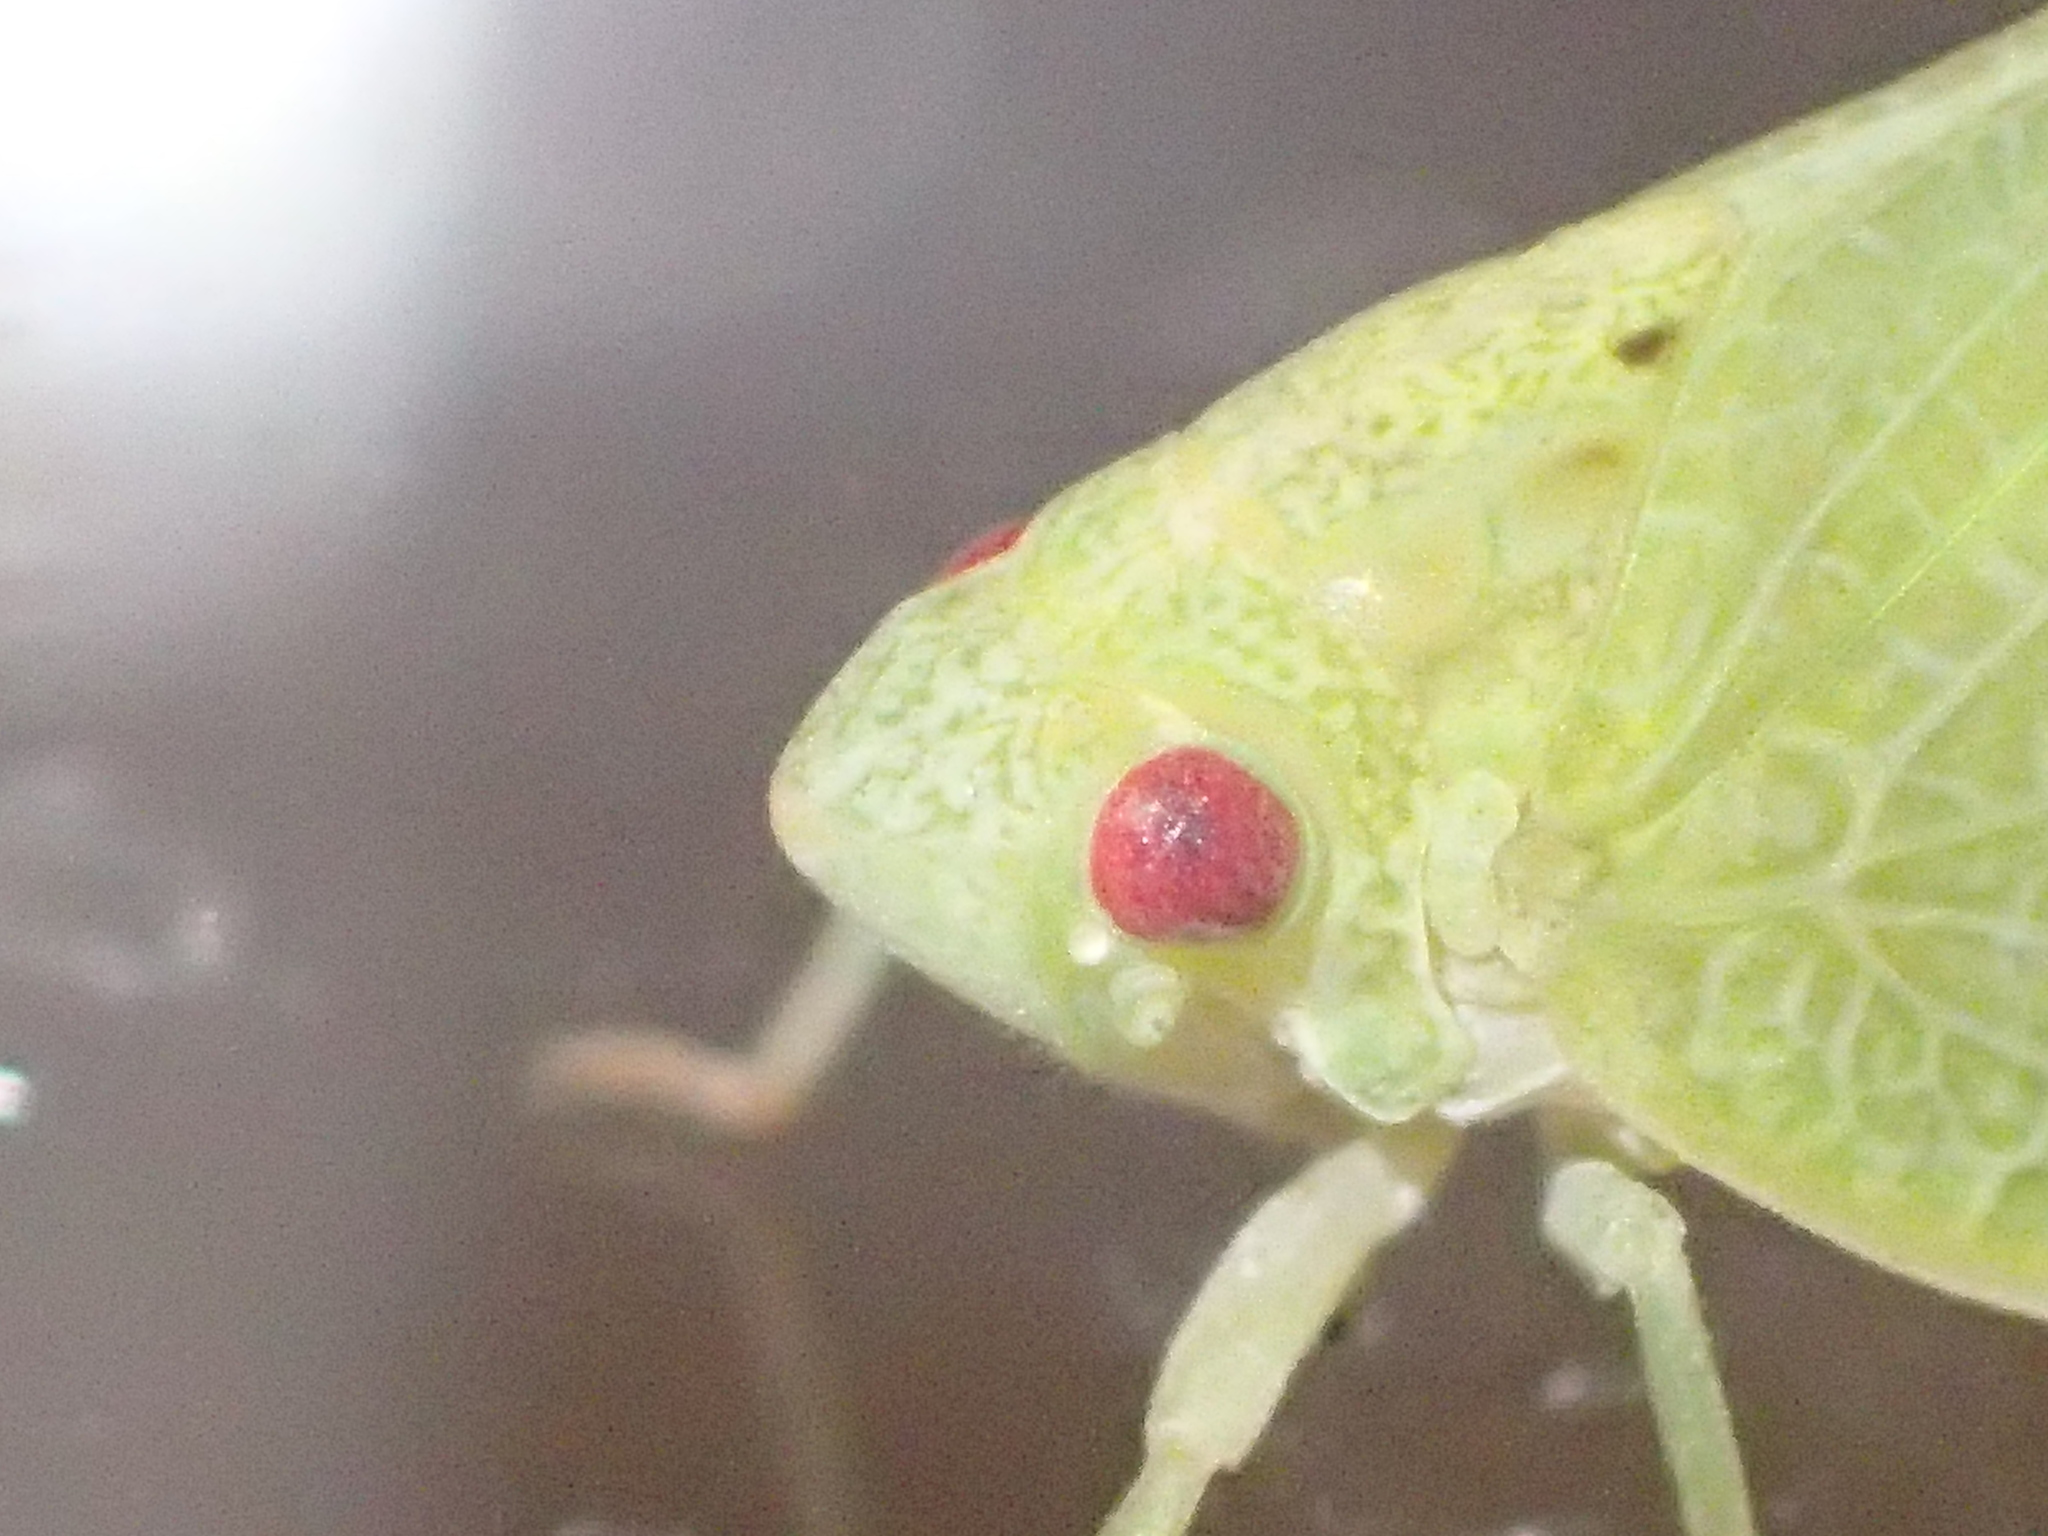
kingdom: Animalia
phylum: Arthropoda
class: Insecta
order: Hemiptera
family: Acanaloniidae
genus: Acanalonia
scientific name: Acanalonia conica
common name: Green cone-headed planthopper
